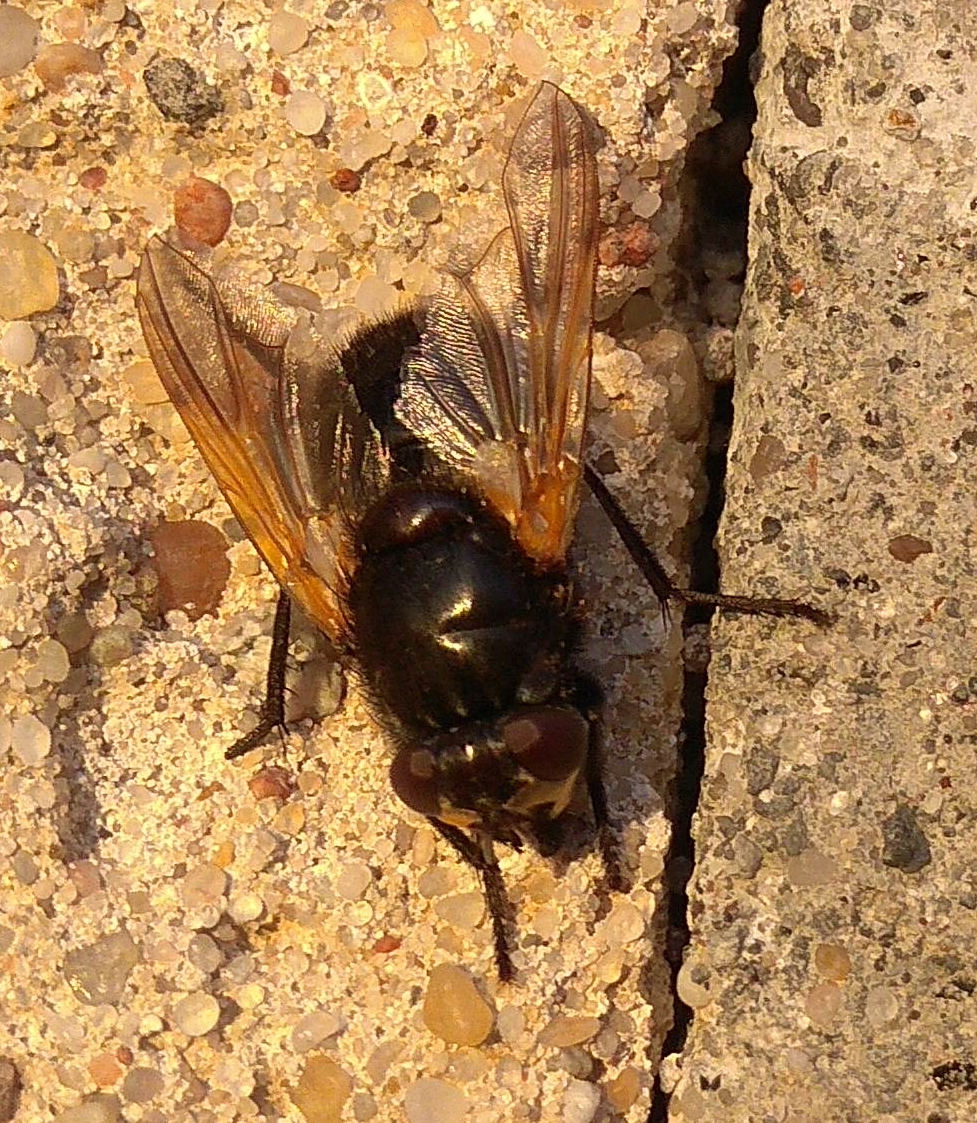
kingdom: Animalia
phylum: Arthropoda
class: Insecta
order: Diptera
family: Muscidae
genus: Mesembrina
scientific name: Mesembrina meridiana
